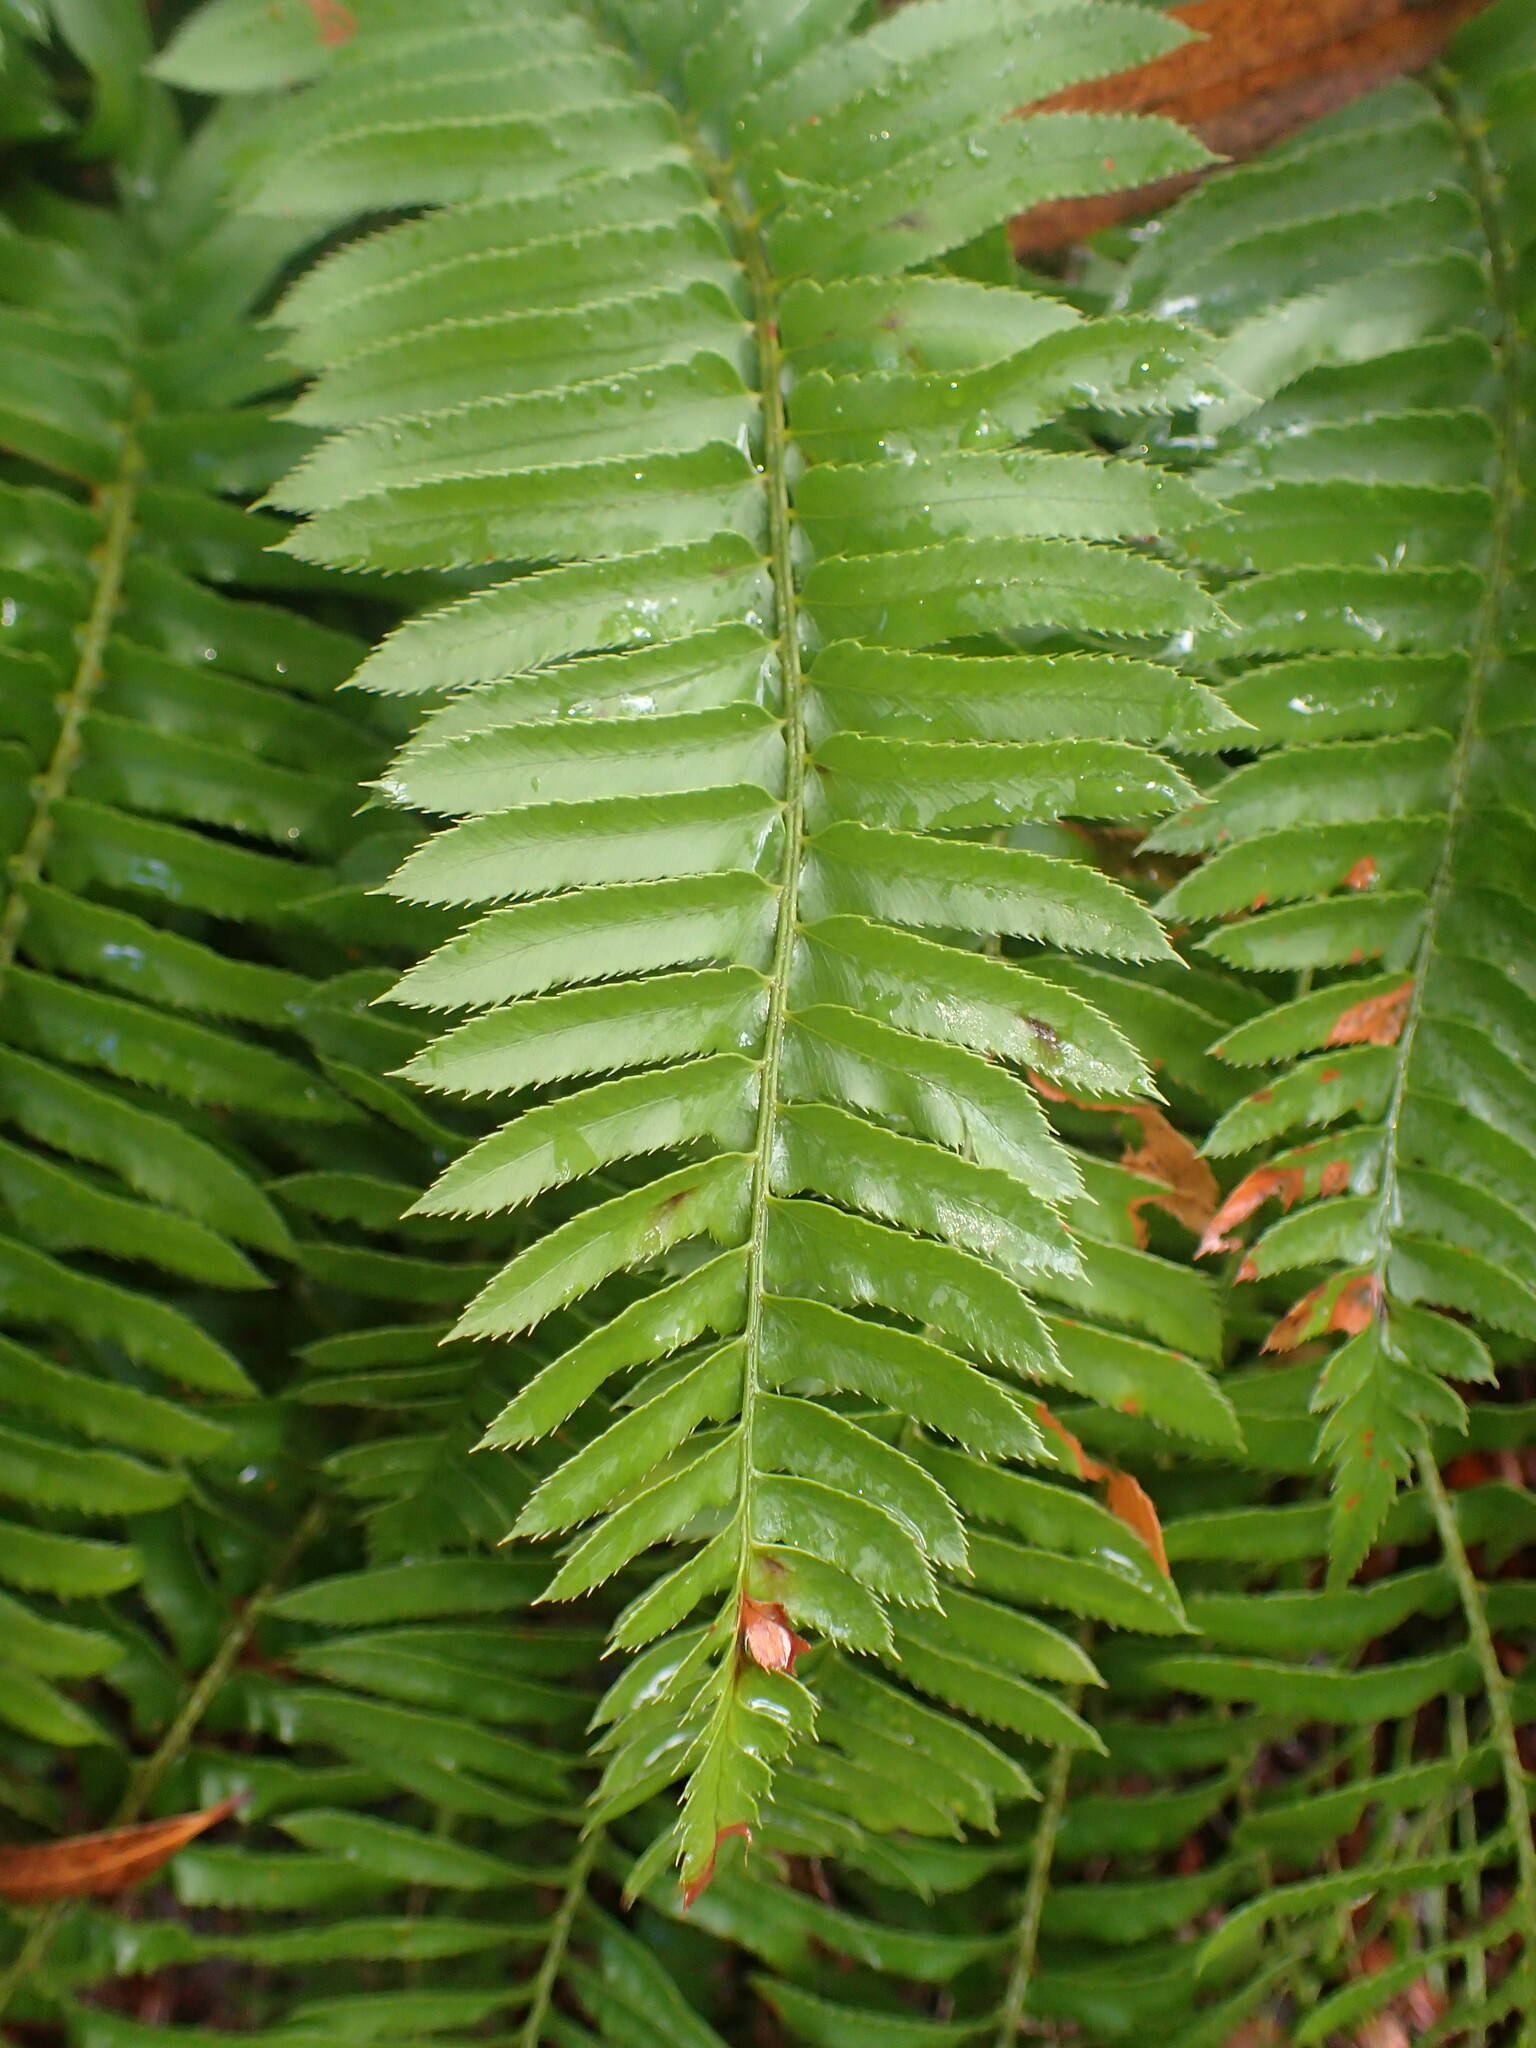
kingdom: Plantae
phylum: Tracheophyta
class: Polypodiopsida
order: Polypodiales
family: Dryopteridaceae
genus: Polystichum
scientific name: Polystichum munitum
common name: Western sword-fern
